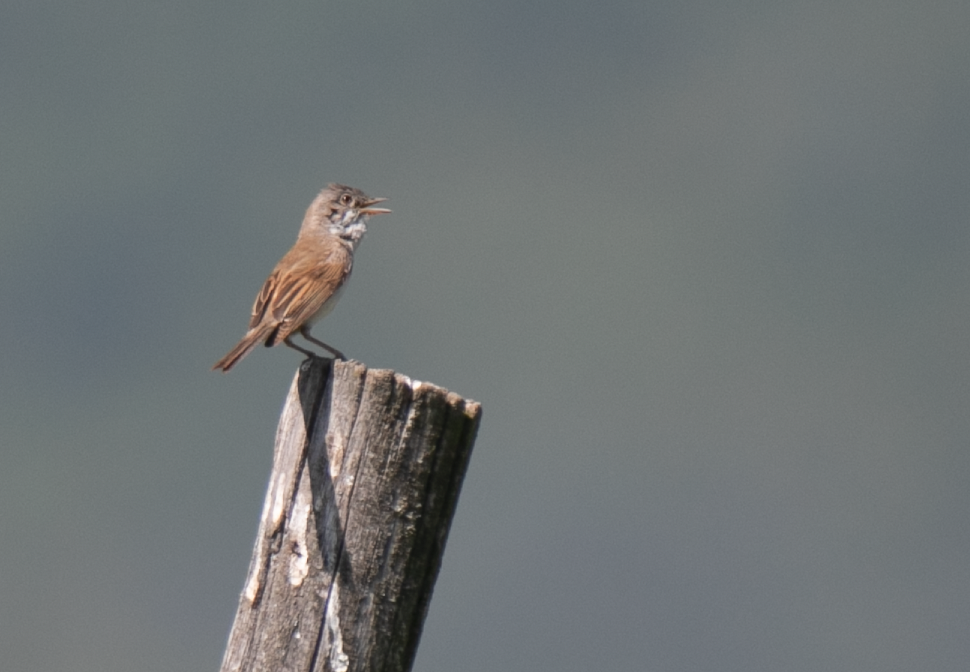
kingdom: Animalia
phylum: Chordata
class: Aves
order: Passeriformes
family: Sylviidae
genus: Sylvia
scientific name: Sylvia communis
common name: Common whitethroat
